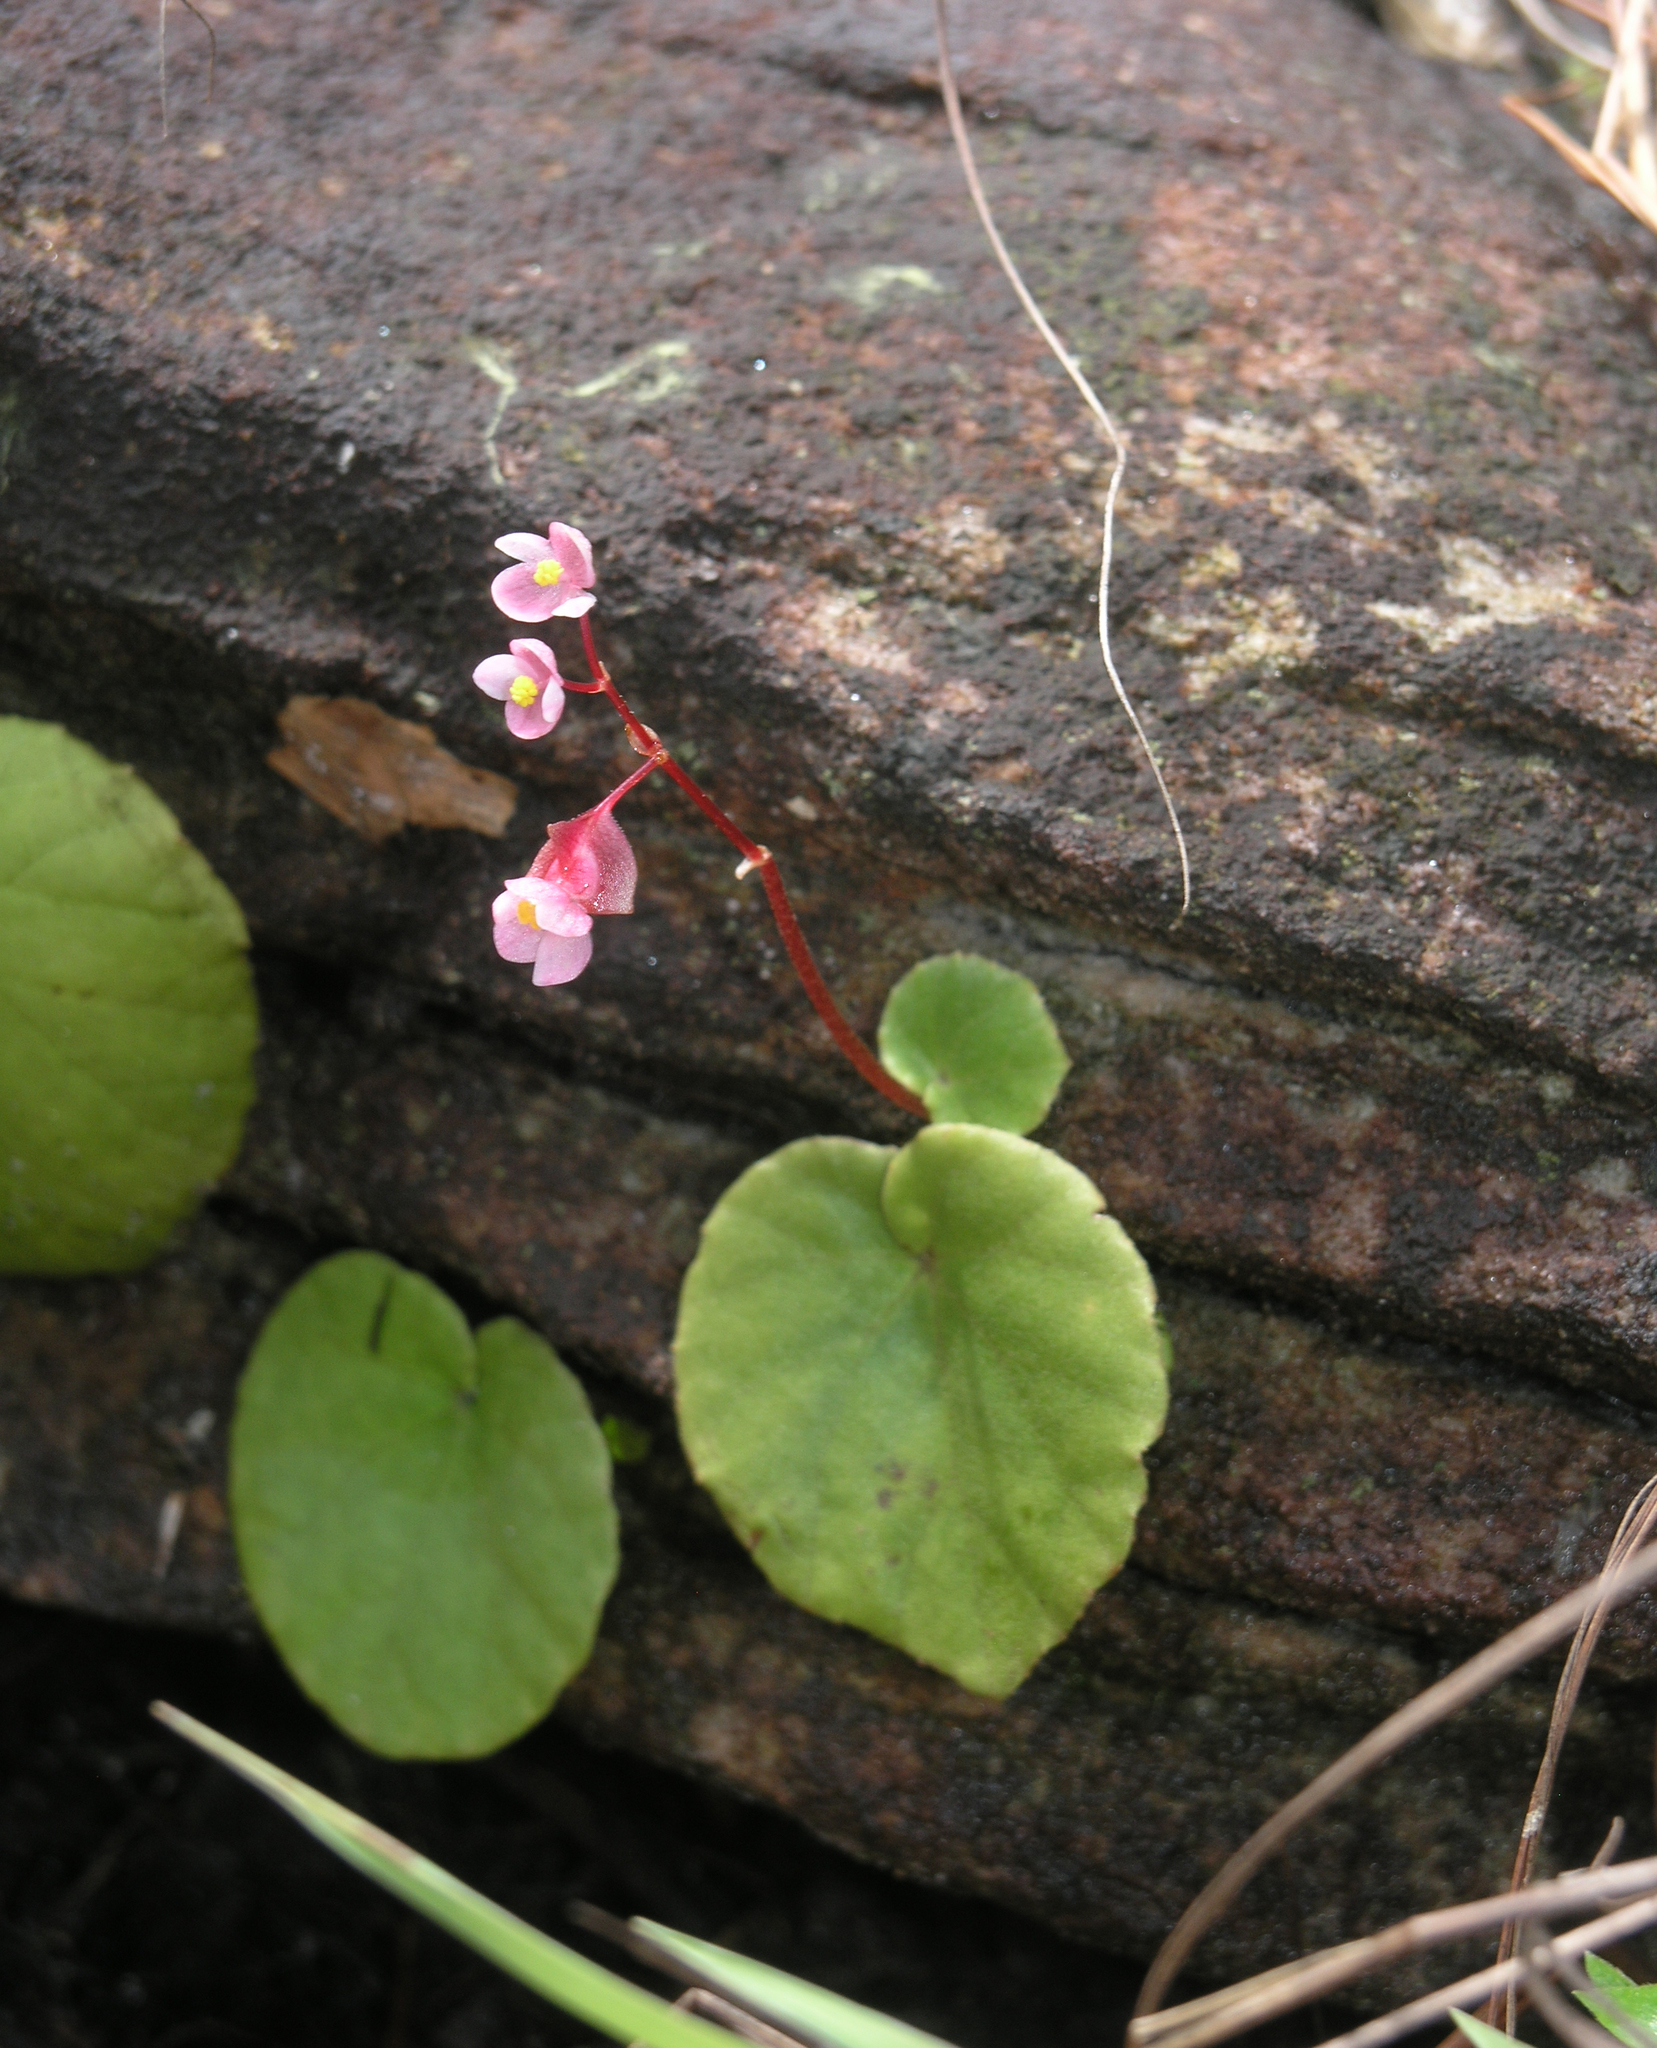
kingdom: Plantae
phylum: Tracheophyta
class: Magnoliopsida
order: Cucurbitales
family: Begoniaceae
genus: Begonia
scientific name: Begonia sinuata
